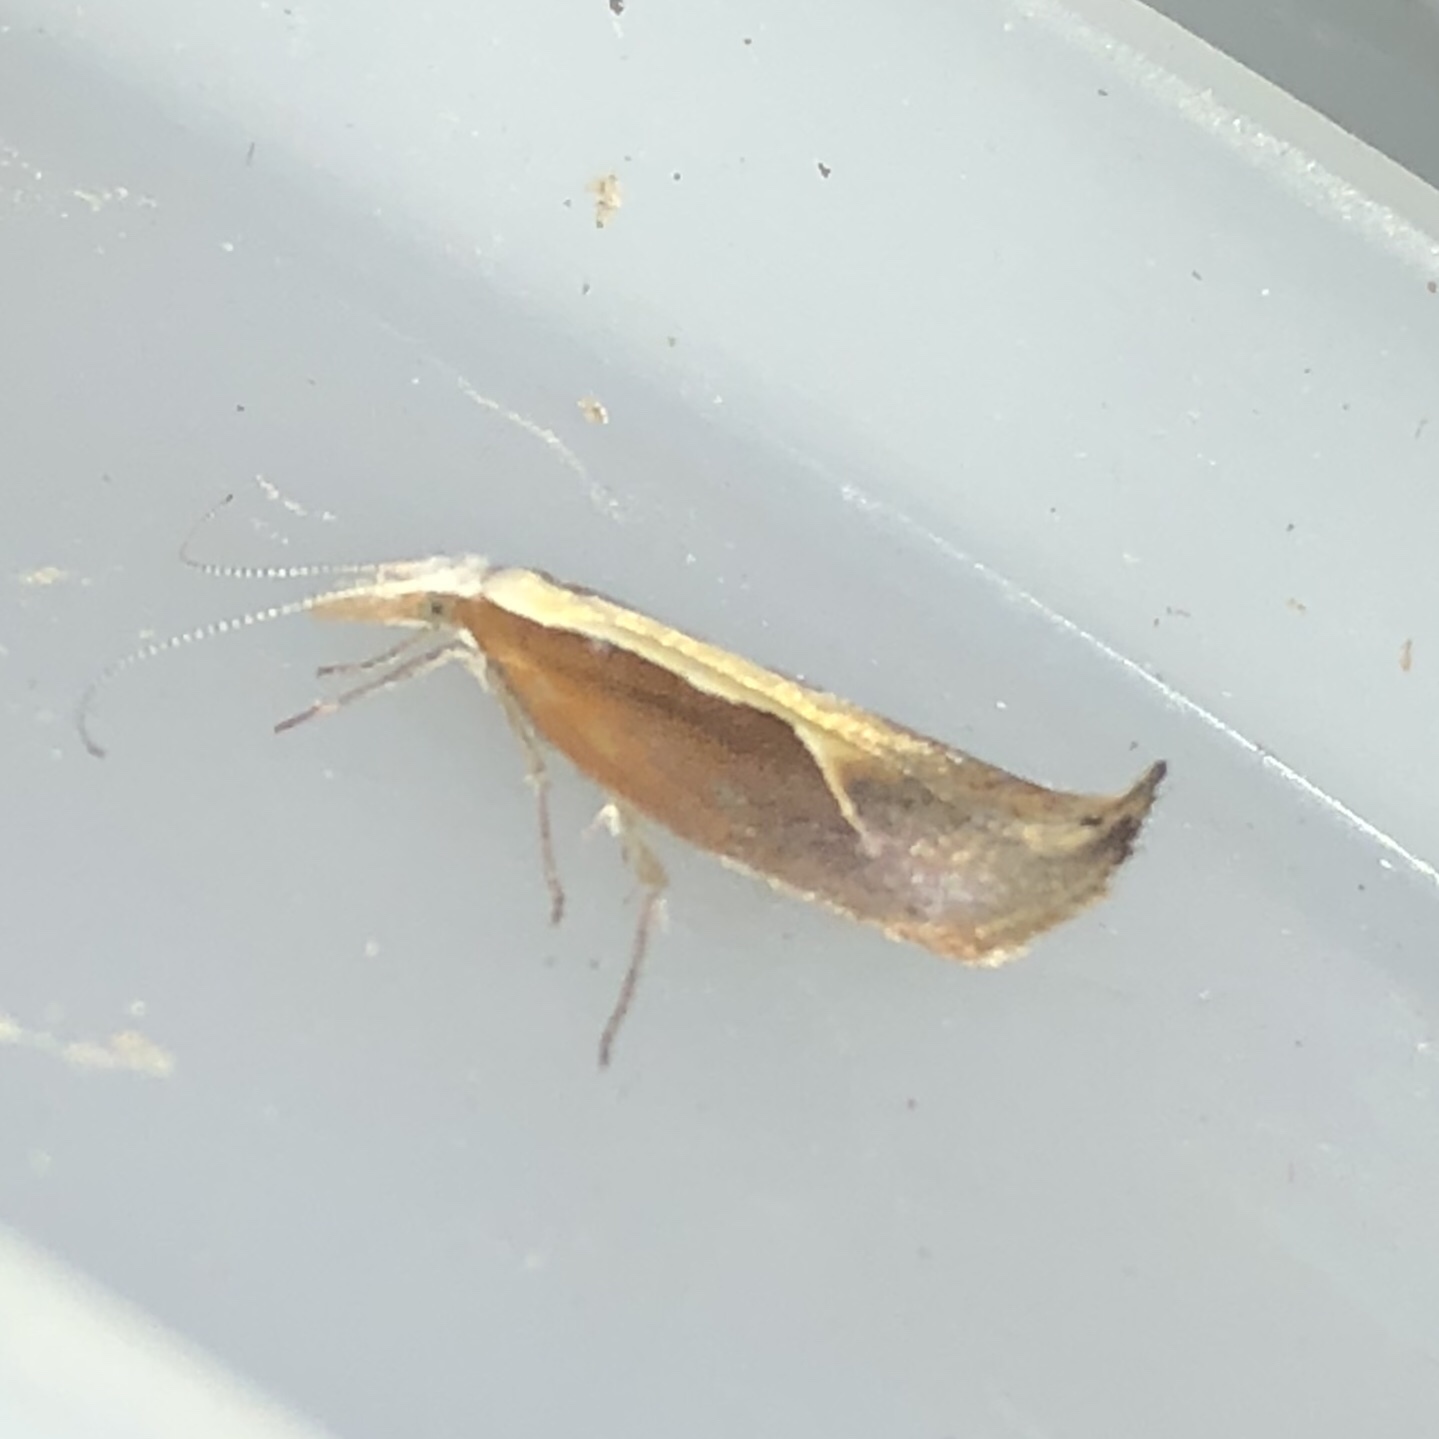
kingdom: Animalia
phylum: Arthropoda
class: Insecta
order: Lepidoptera
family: Ypsolophidae
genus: Ypsolopha
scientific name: Ypsolopha dentella
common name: Honeysuckle moth
